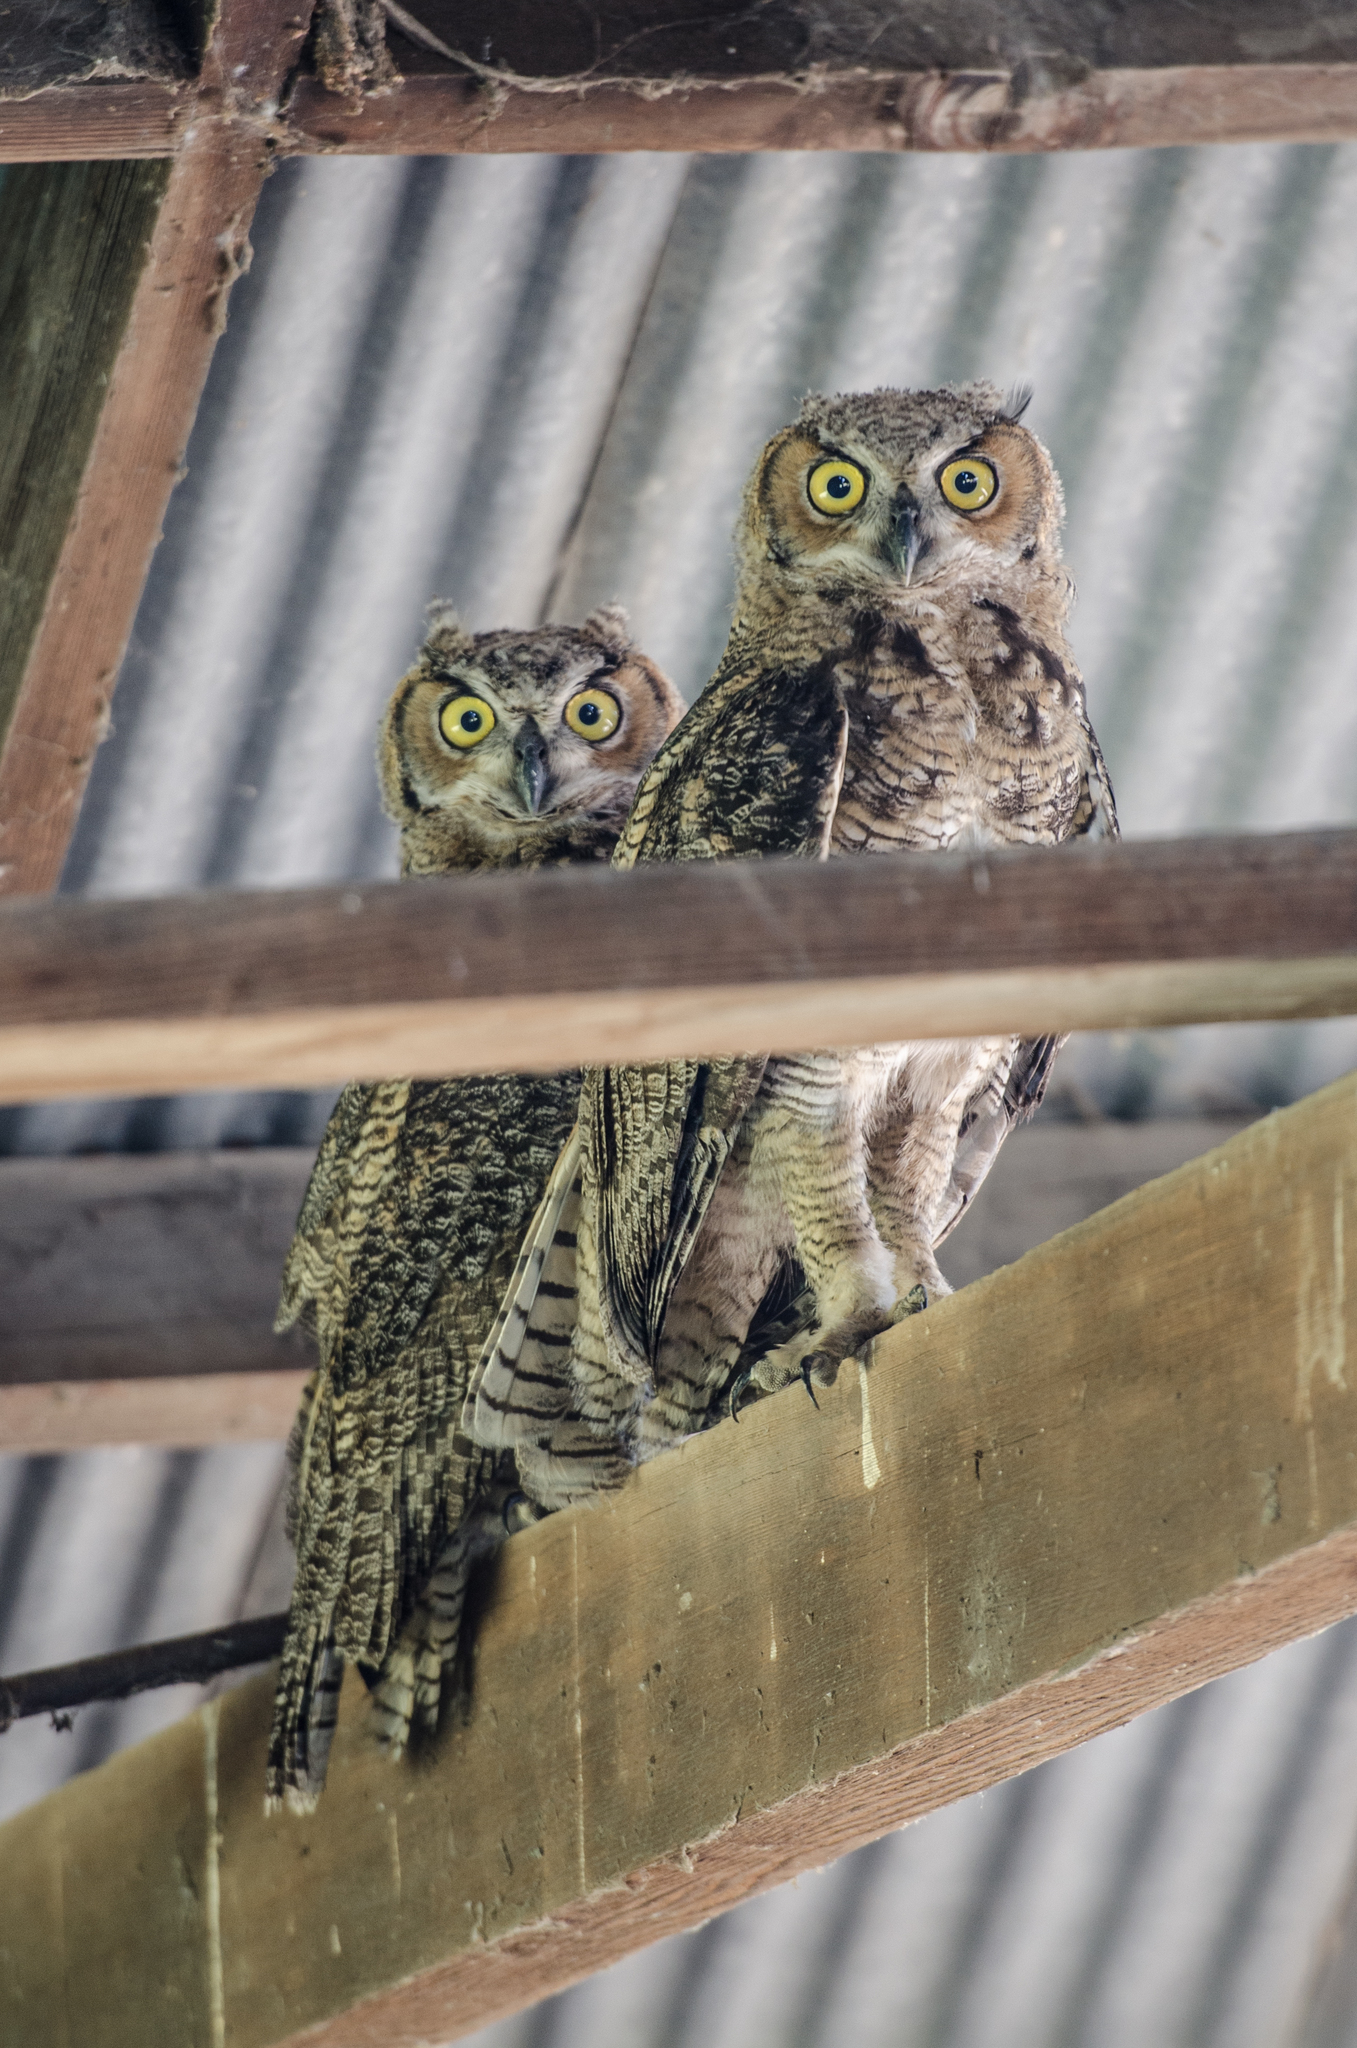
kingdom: Animalia
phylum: Chordata
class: Aves
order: Strigiformes
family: Strigidae
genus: Bubo
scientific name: Bubo virginianus
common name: Great horned owl
